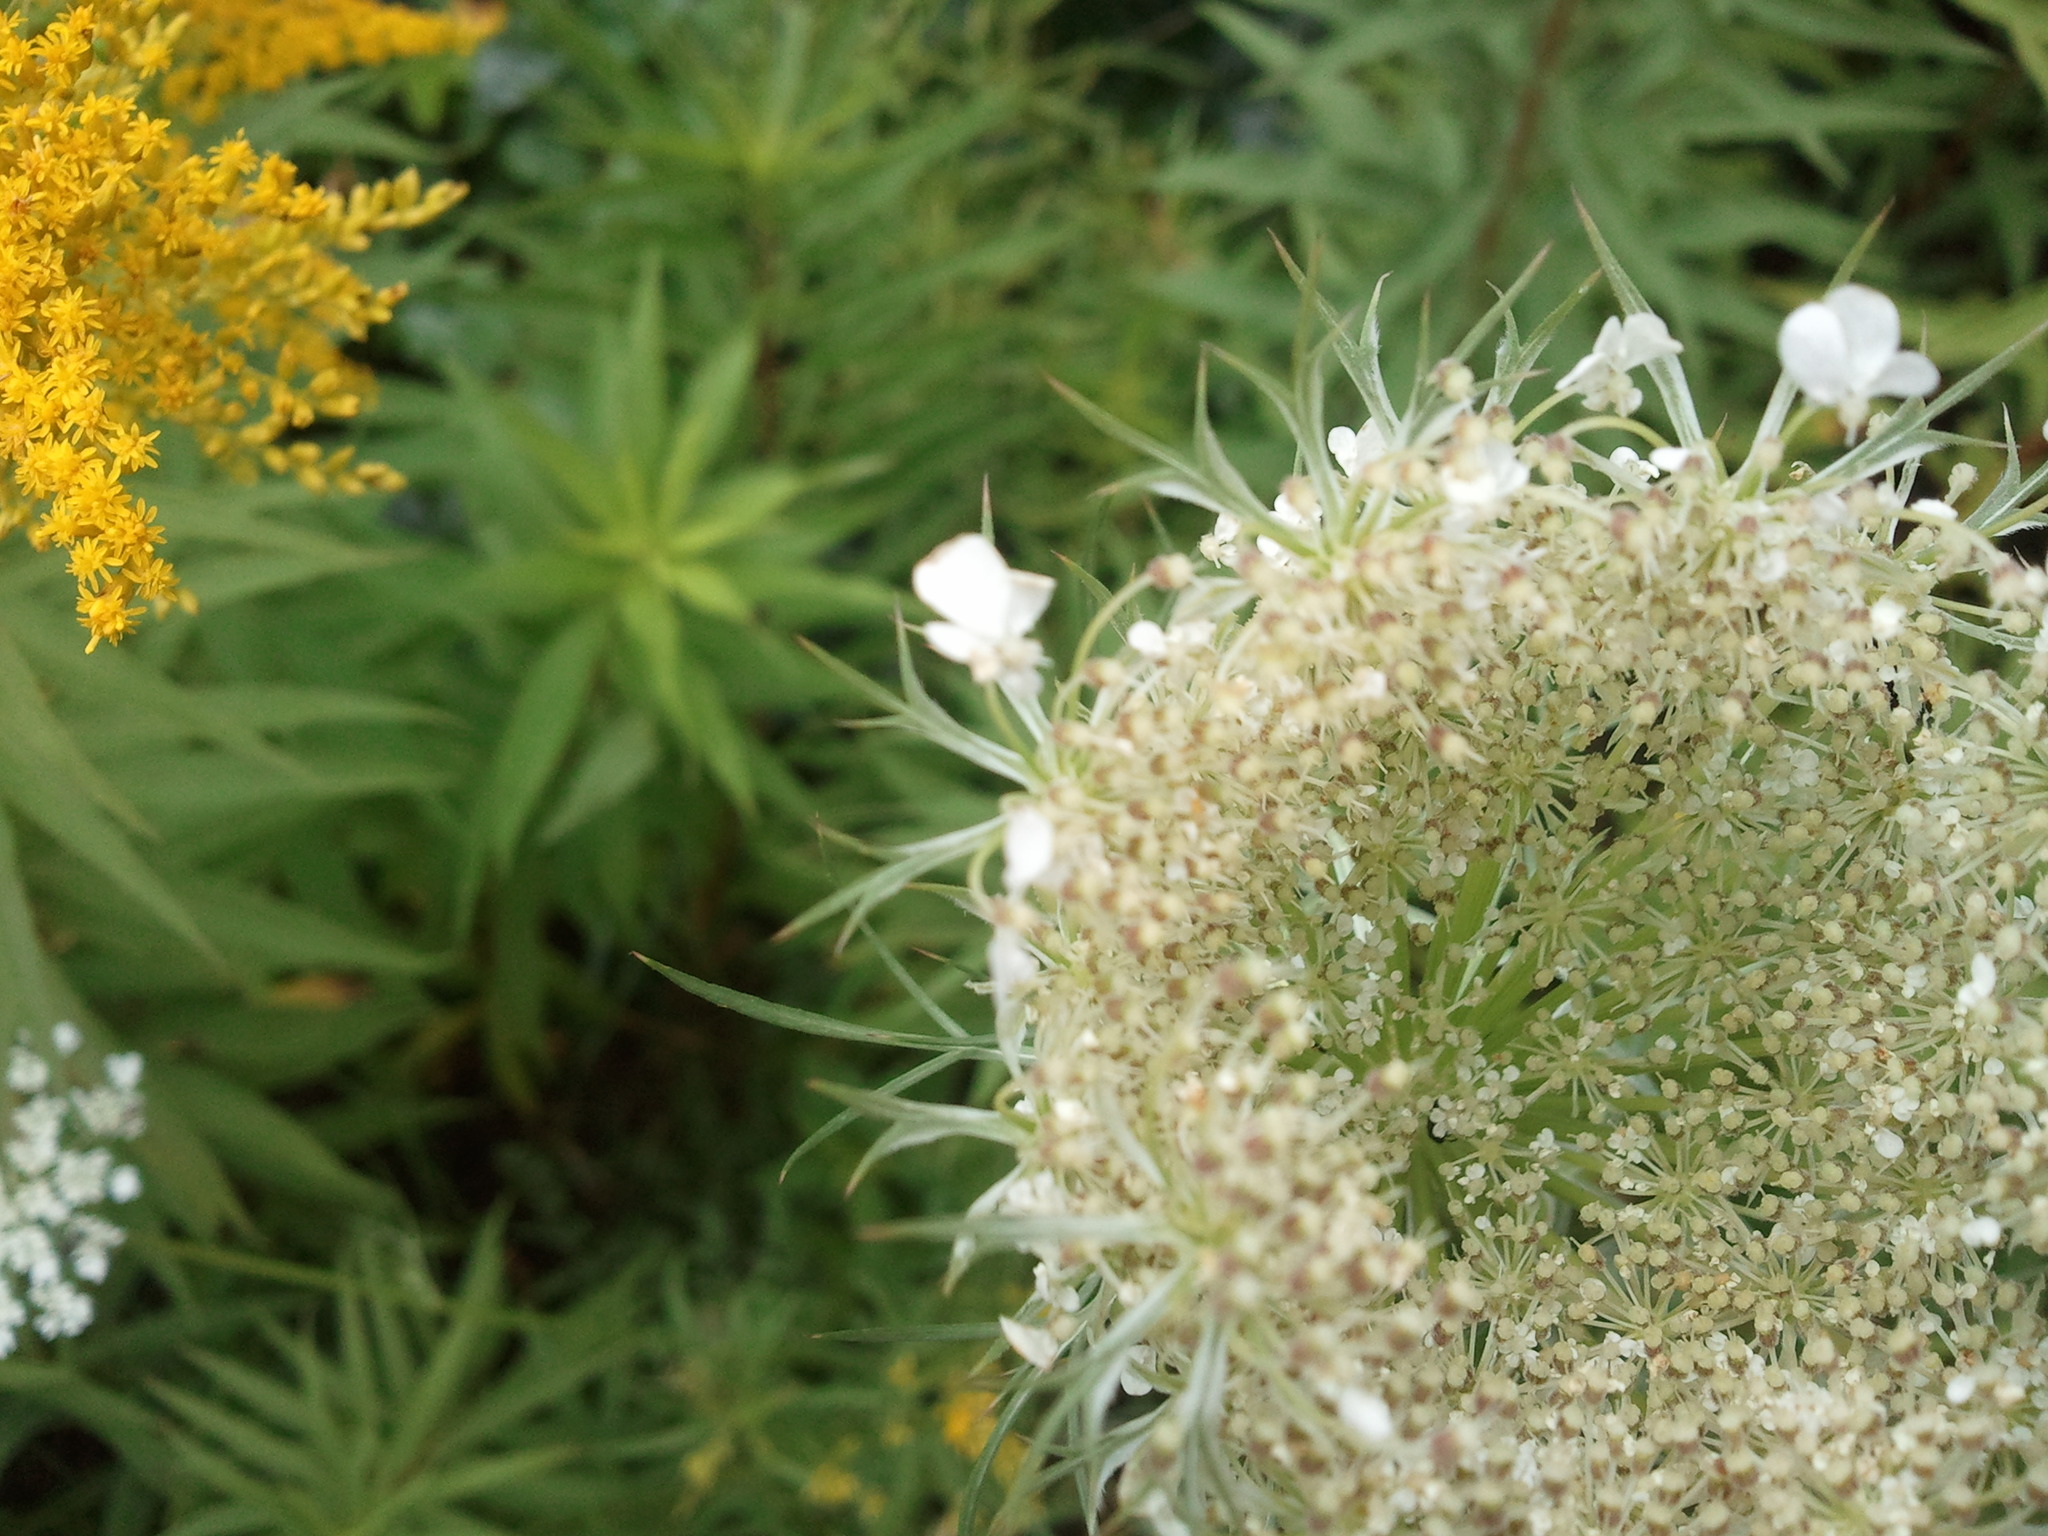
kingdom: Plantae
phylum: Tracheophyta
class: Magnoliopsida
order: Apiales
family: Apiaceae
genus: Daucus
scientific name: Daucus carota
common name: Wild carrot
